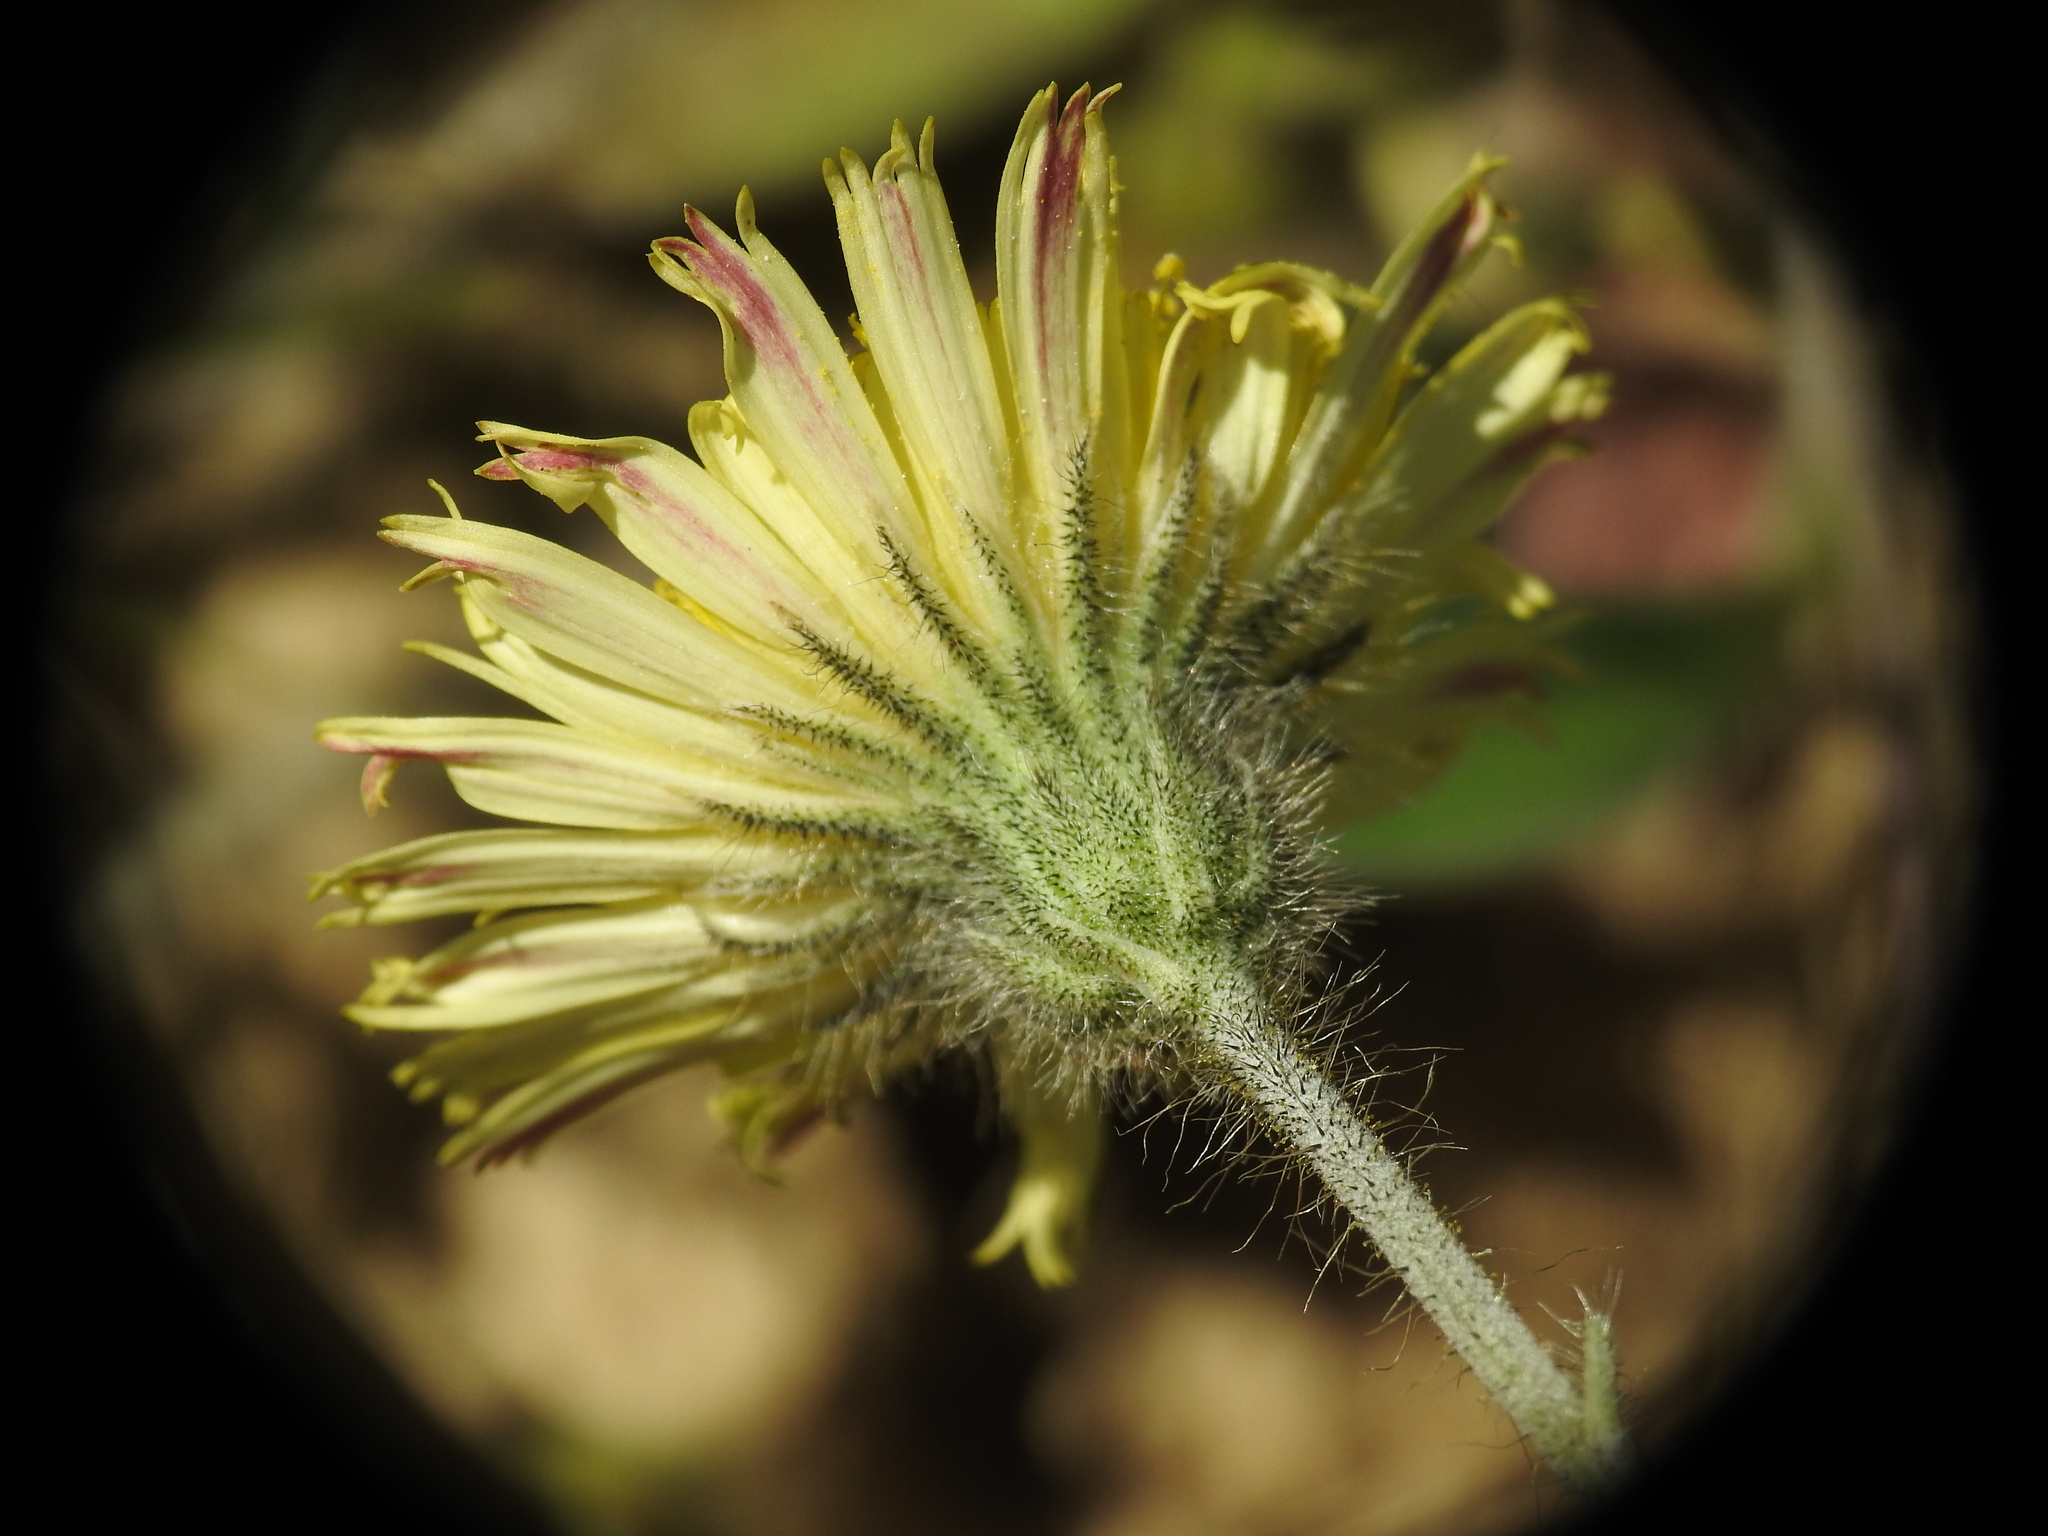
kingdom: Plantae
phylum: Tracheophyta
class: Magnoliopsida
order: Asterales
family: Asteraceae
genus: Pilosella
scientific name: Pilosella officinarum
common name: Mouse-ear hawkweed
